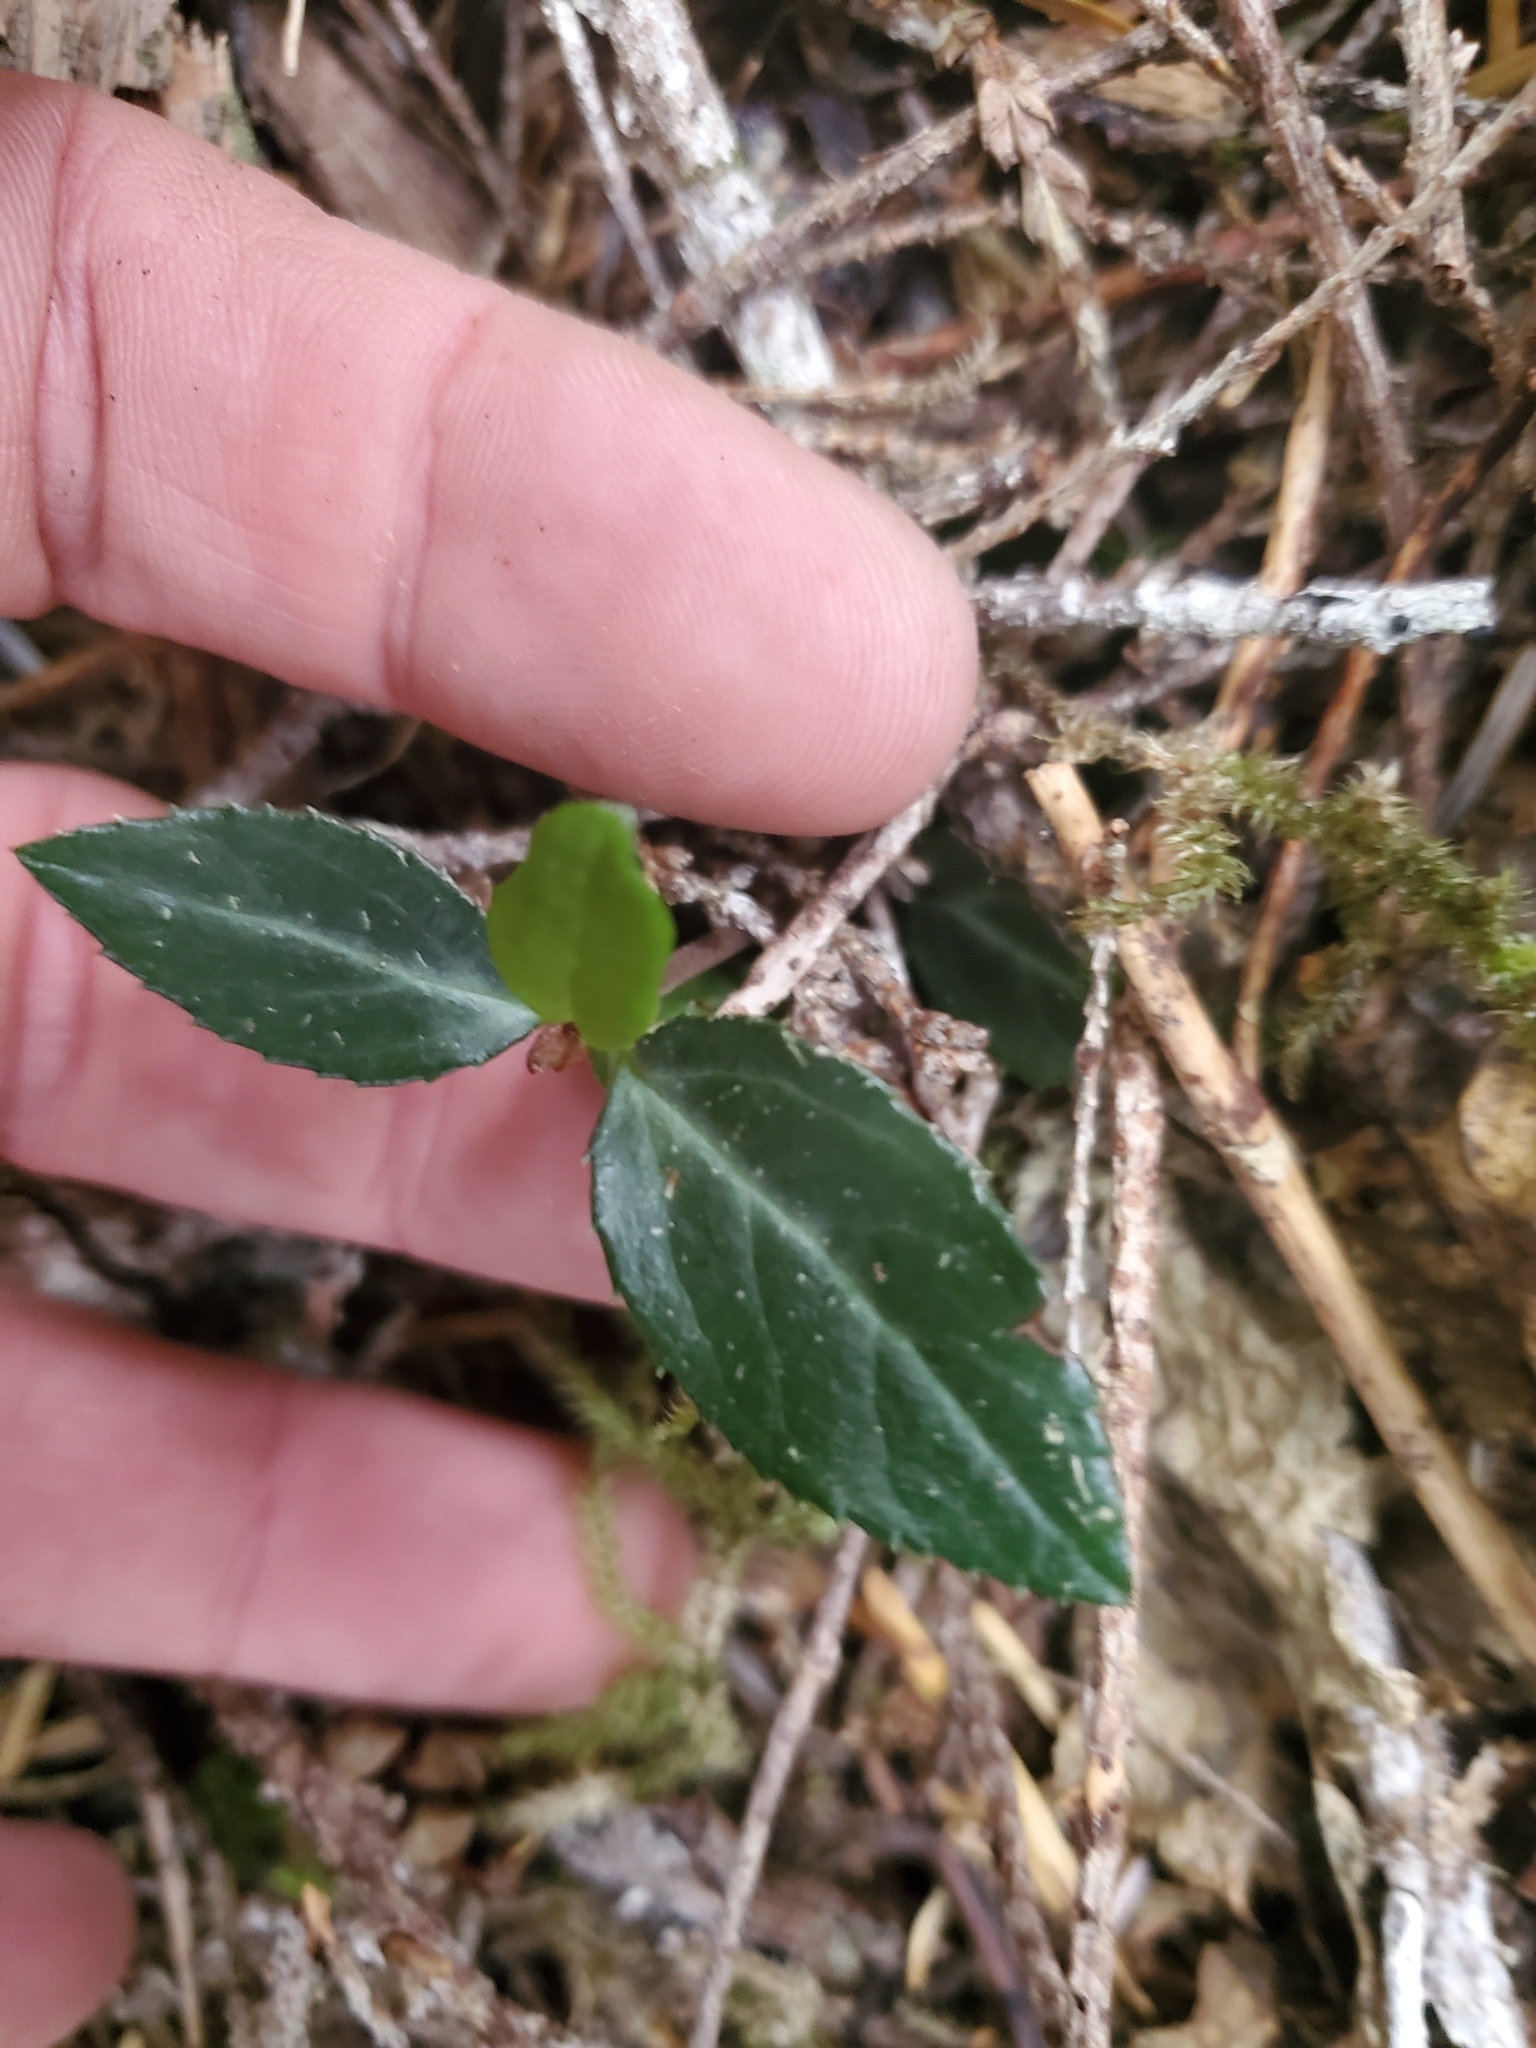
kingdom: Plantae
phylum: Tracheophyta
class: Magnoliopsida
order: Ericales
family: Ericaceae
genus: Chimaphila
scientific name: Chimaphila menziesii
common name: Menzies' pipsissewa
